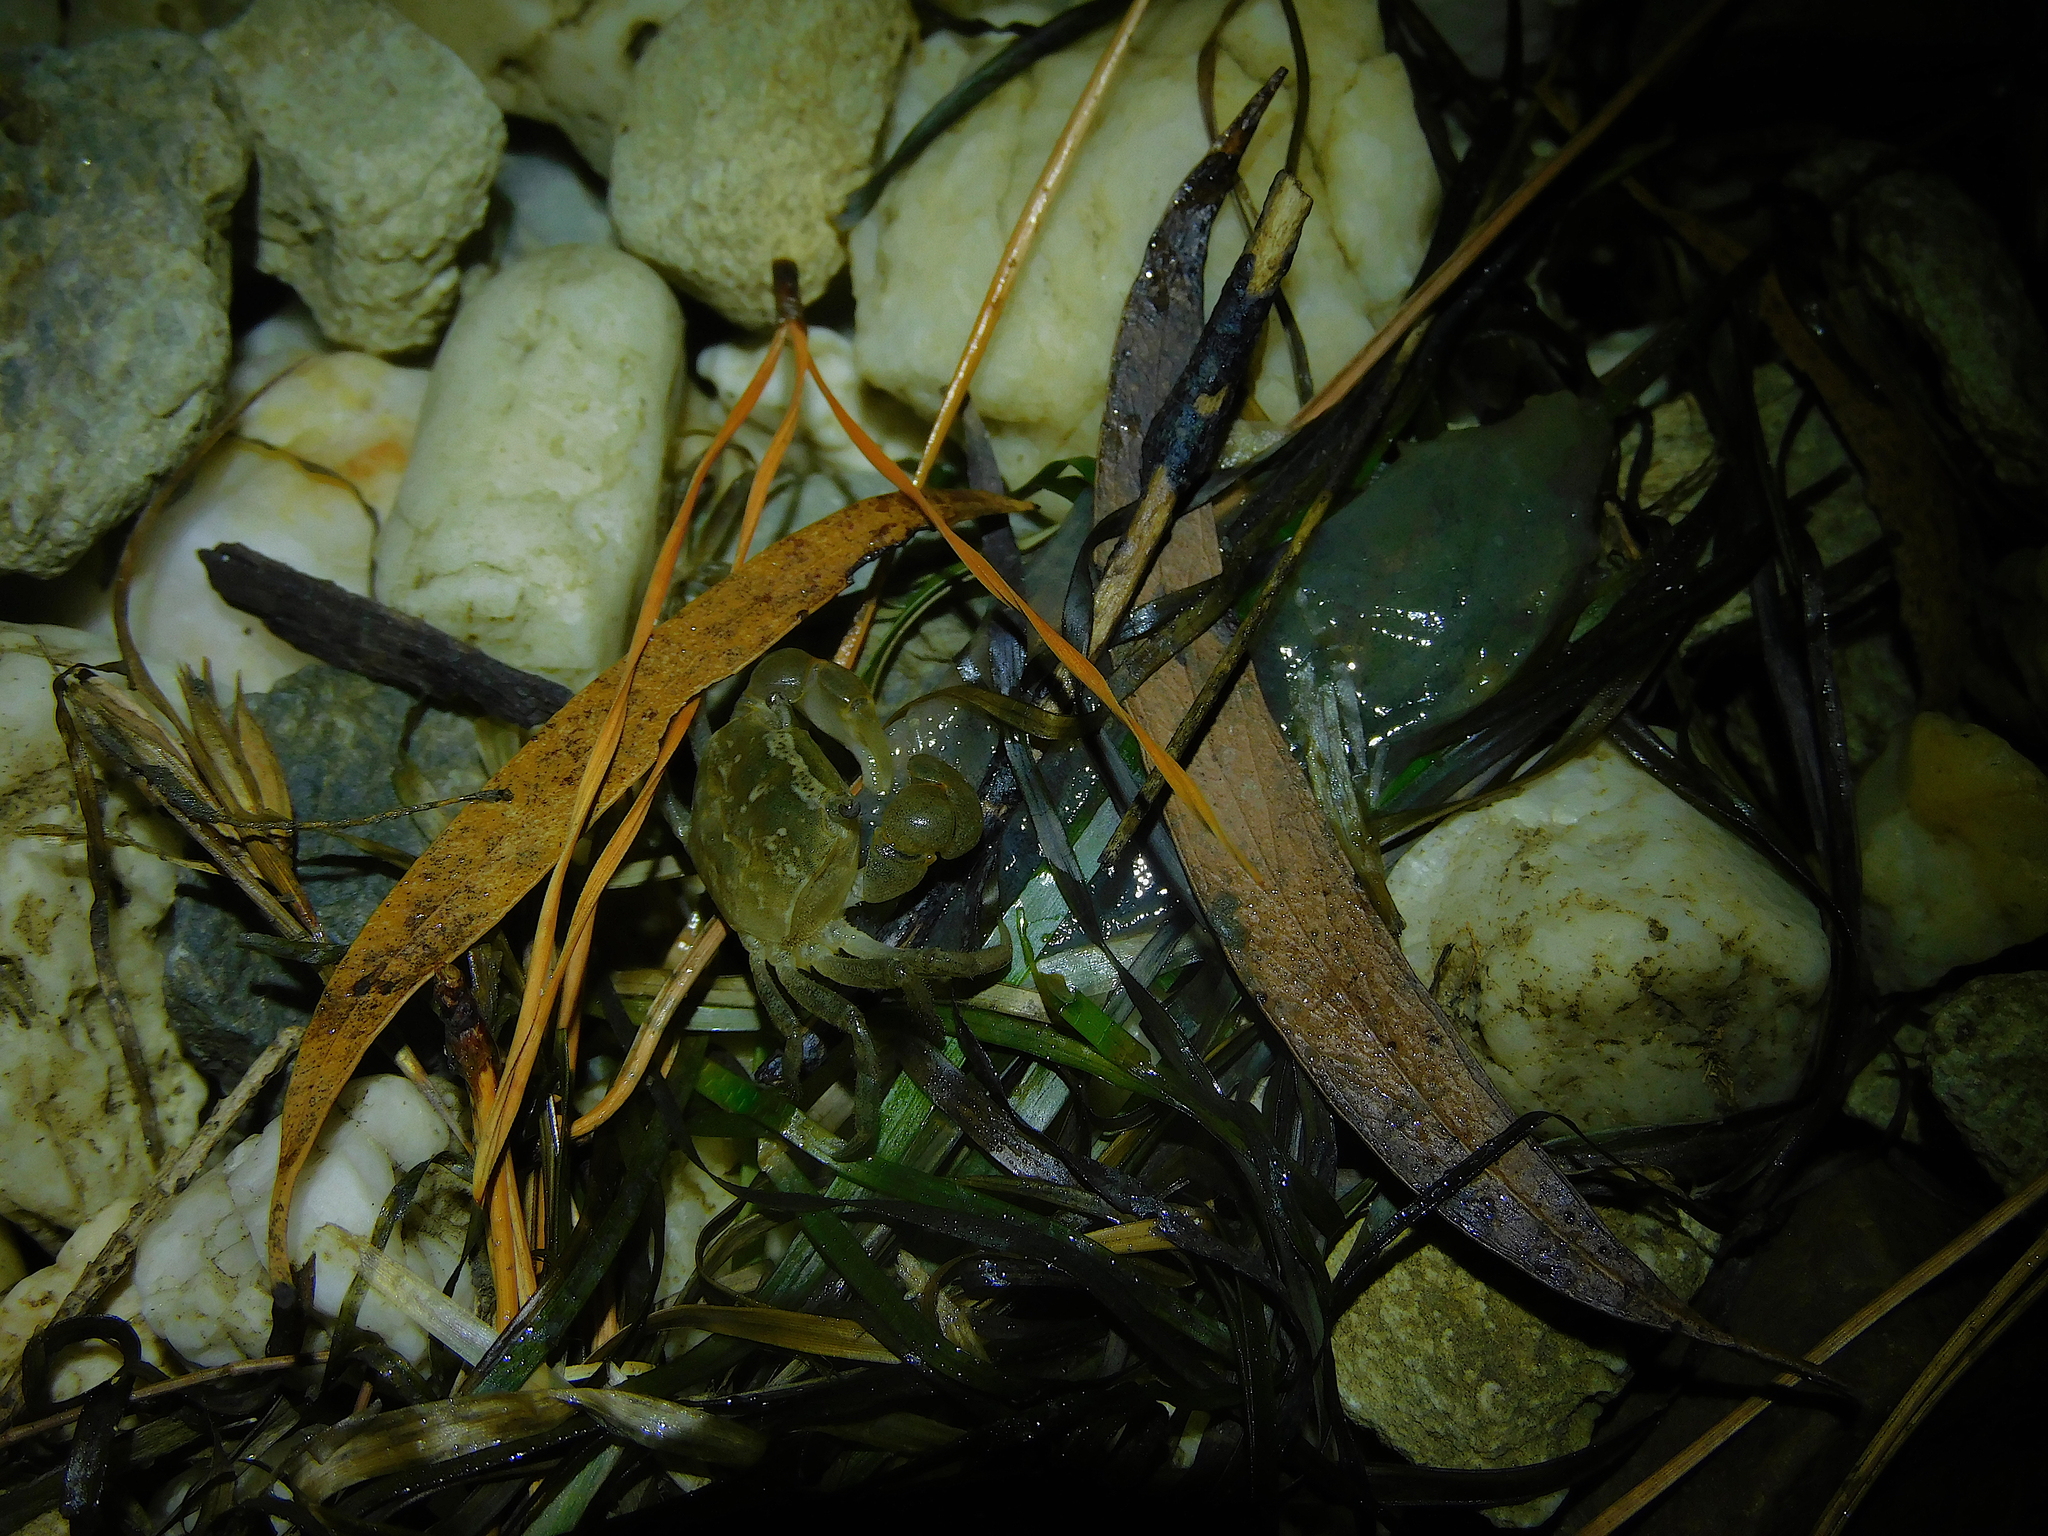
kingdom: Animalia
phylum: Arthropoda
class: Malacostraca
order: Decapoda
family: Varunidae
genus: Helograpsus
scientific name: Helograpsus haswellianus
